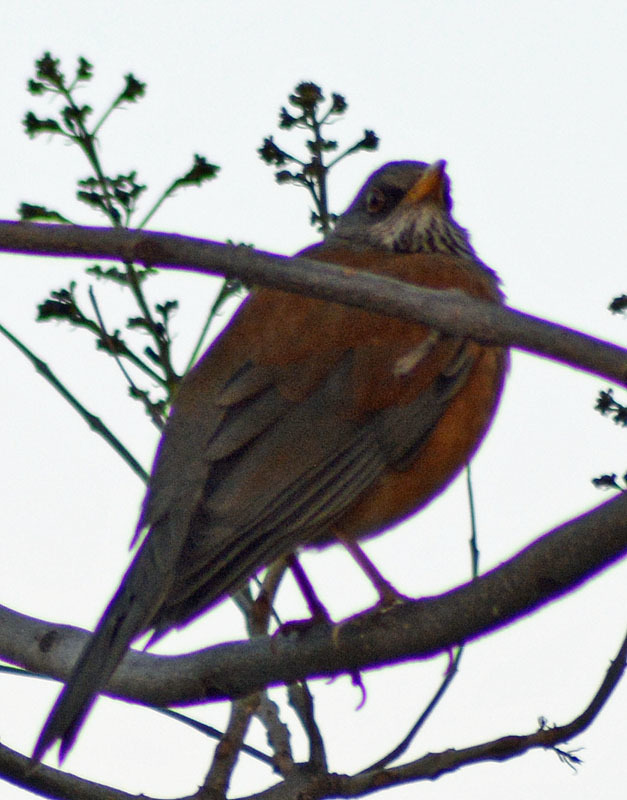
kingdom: Animalia
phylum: Chordata
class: Aves
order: Passeriformes
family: Turdidae
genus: Turdus
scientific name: Turdus rufopalliatus
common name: Rufous-backed robin
